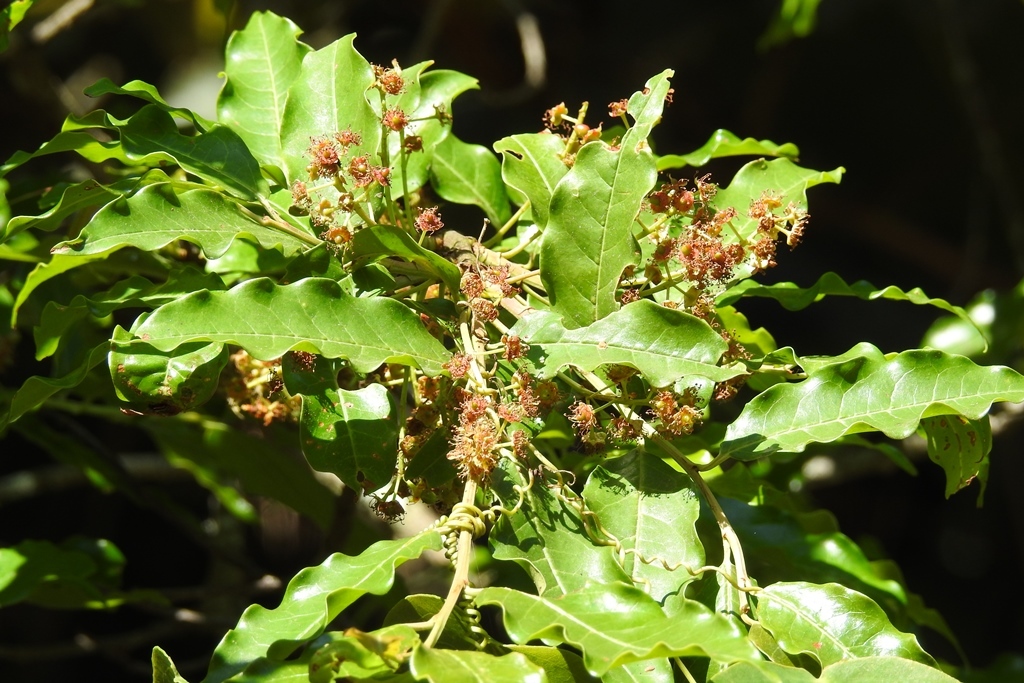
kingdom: Plantae
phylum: Tracheophyta
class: Magnoliopsida
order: Rosales
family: Rosaceae
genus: Prunus
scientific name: Prunus rhamnoides
